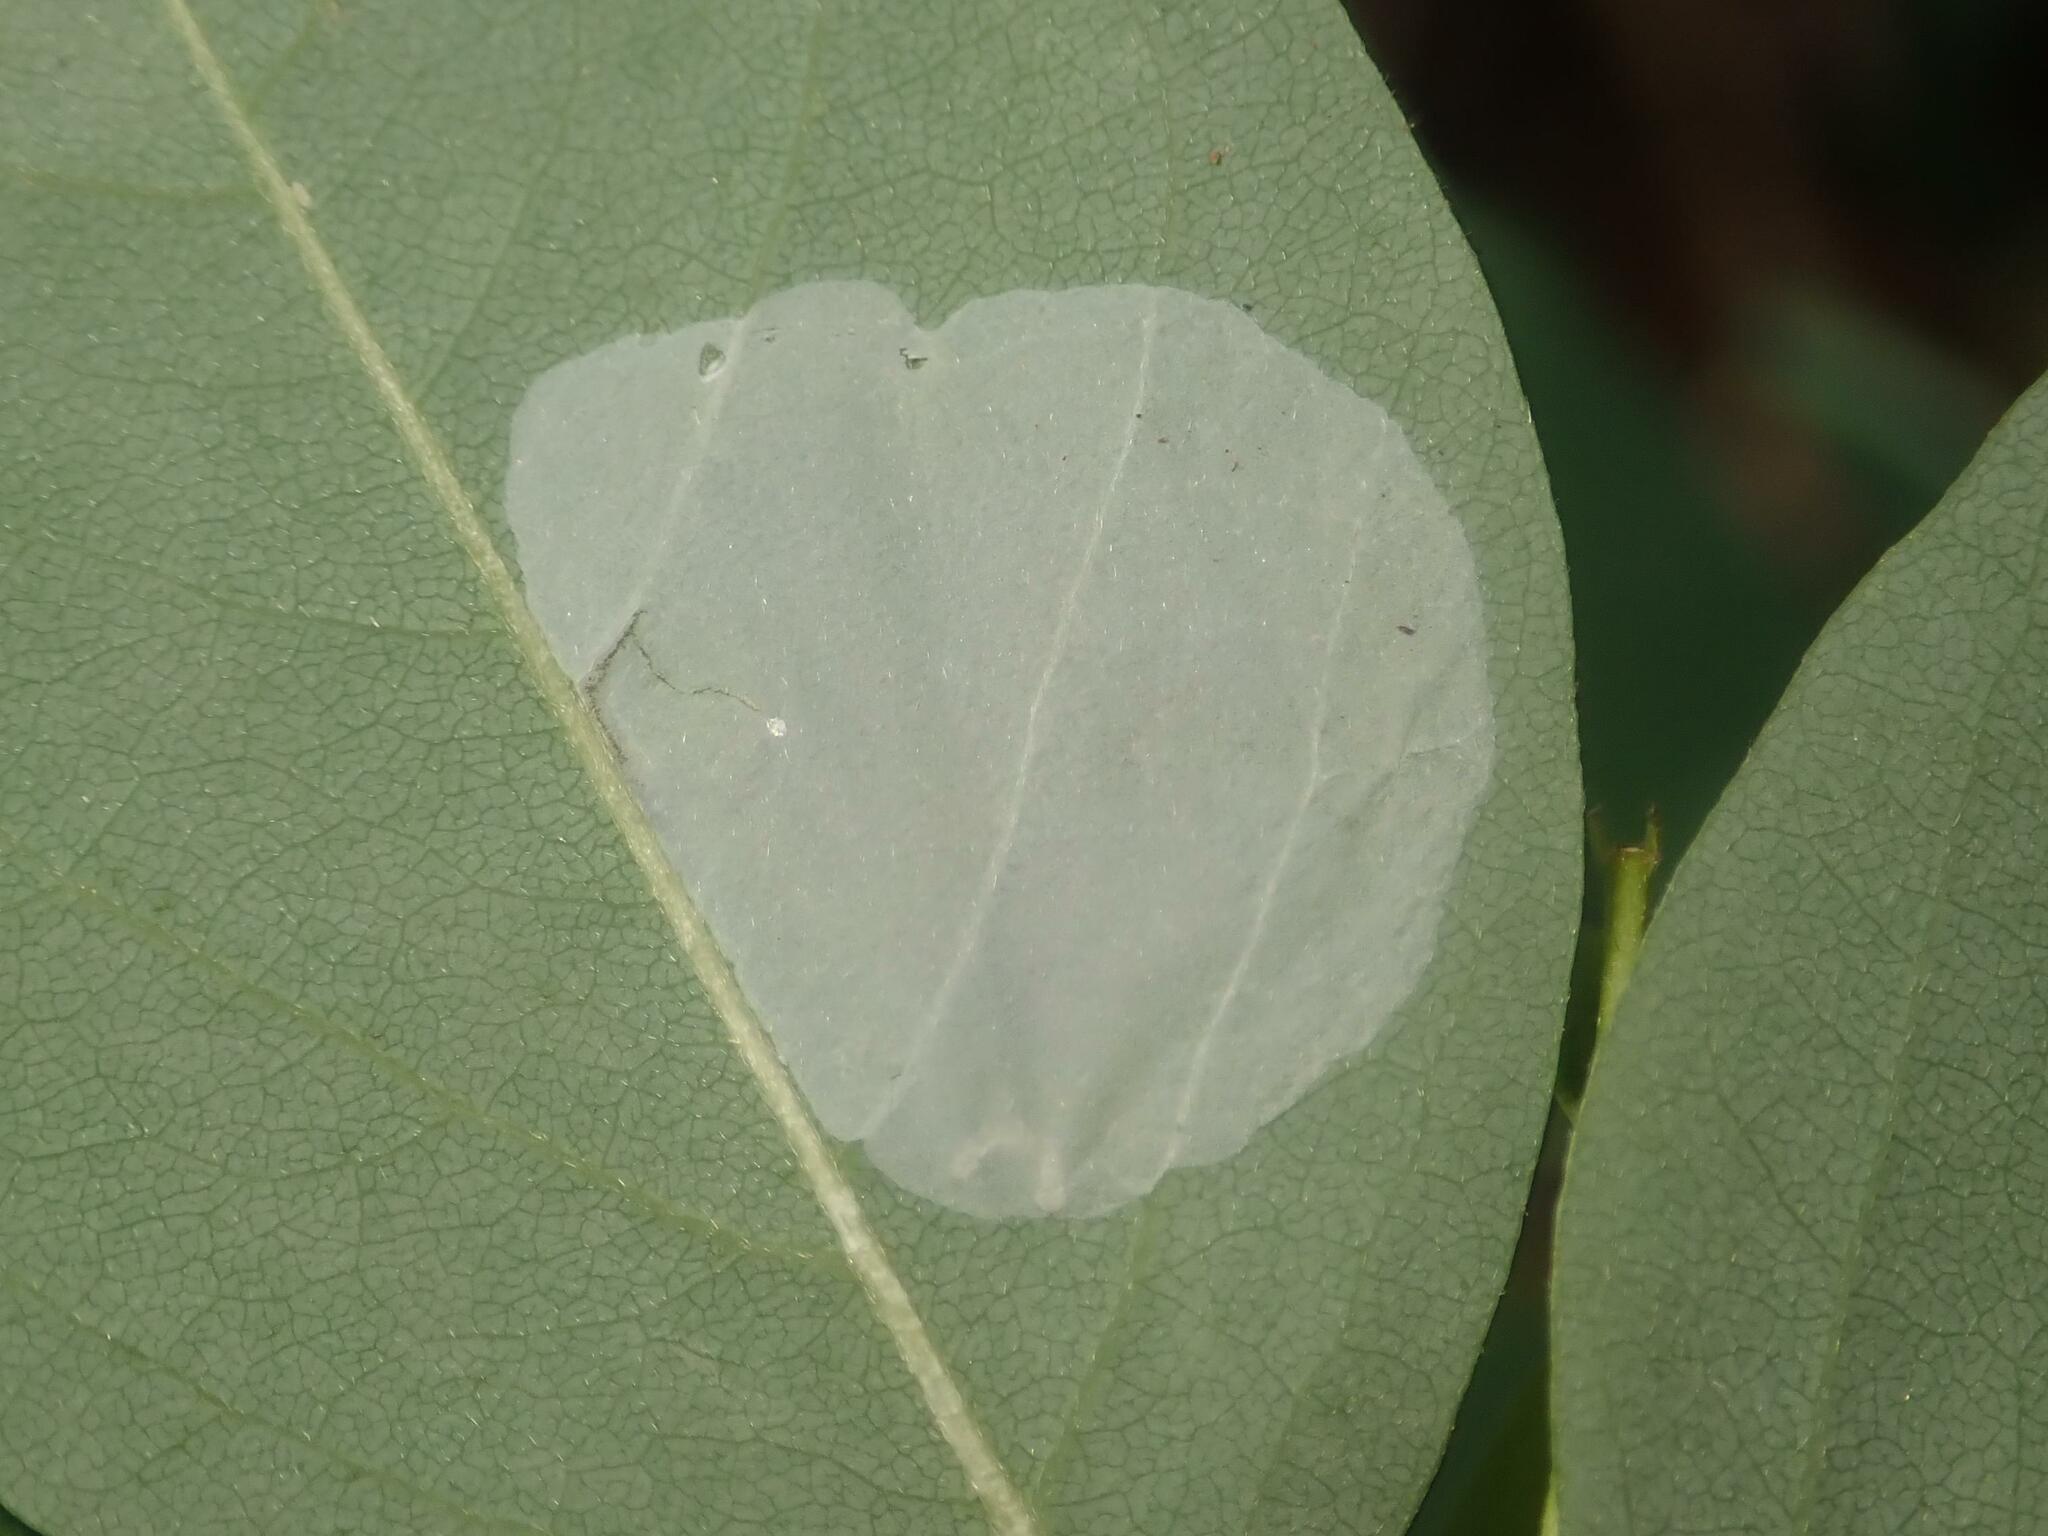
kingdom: Animalia
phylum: Arthropoda
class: Insecta
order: Lepidoptera
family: Gracillariidae
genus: Macrosaccus
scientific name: Macrosaccus robiniella
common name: Leaf blotch miner moth
